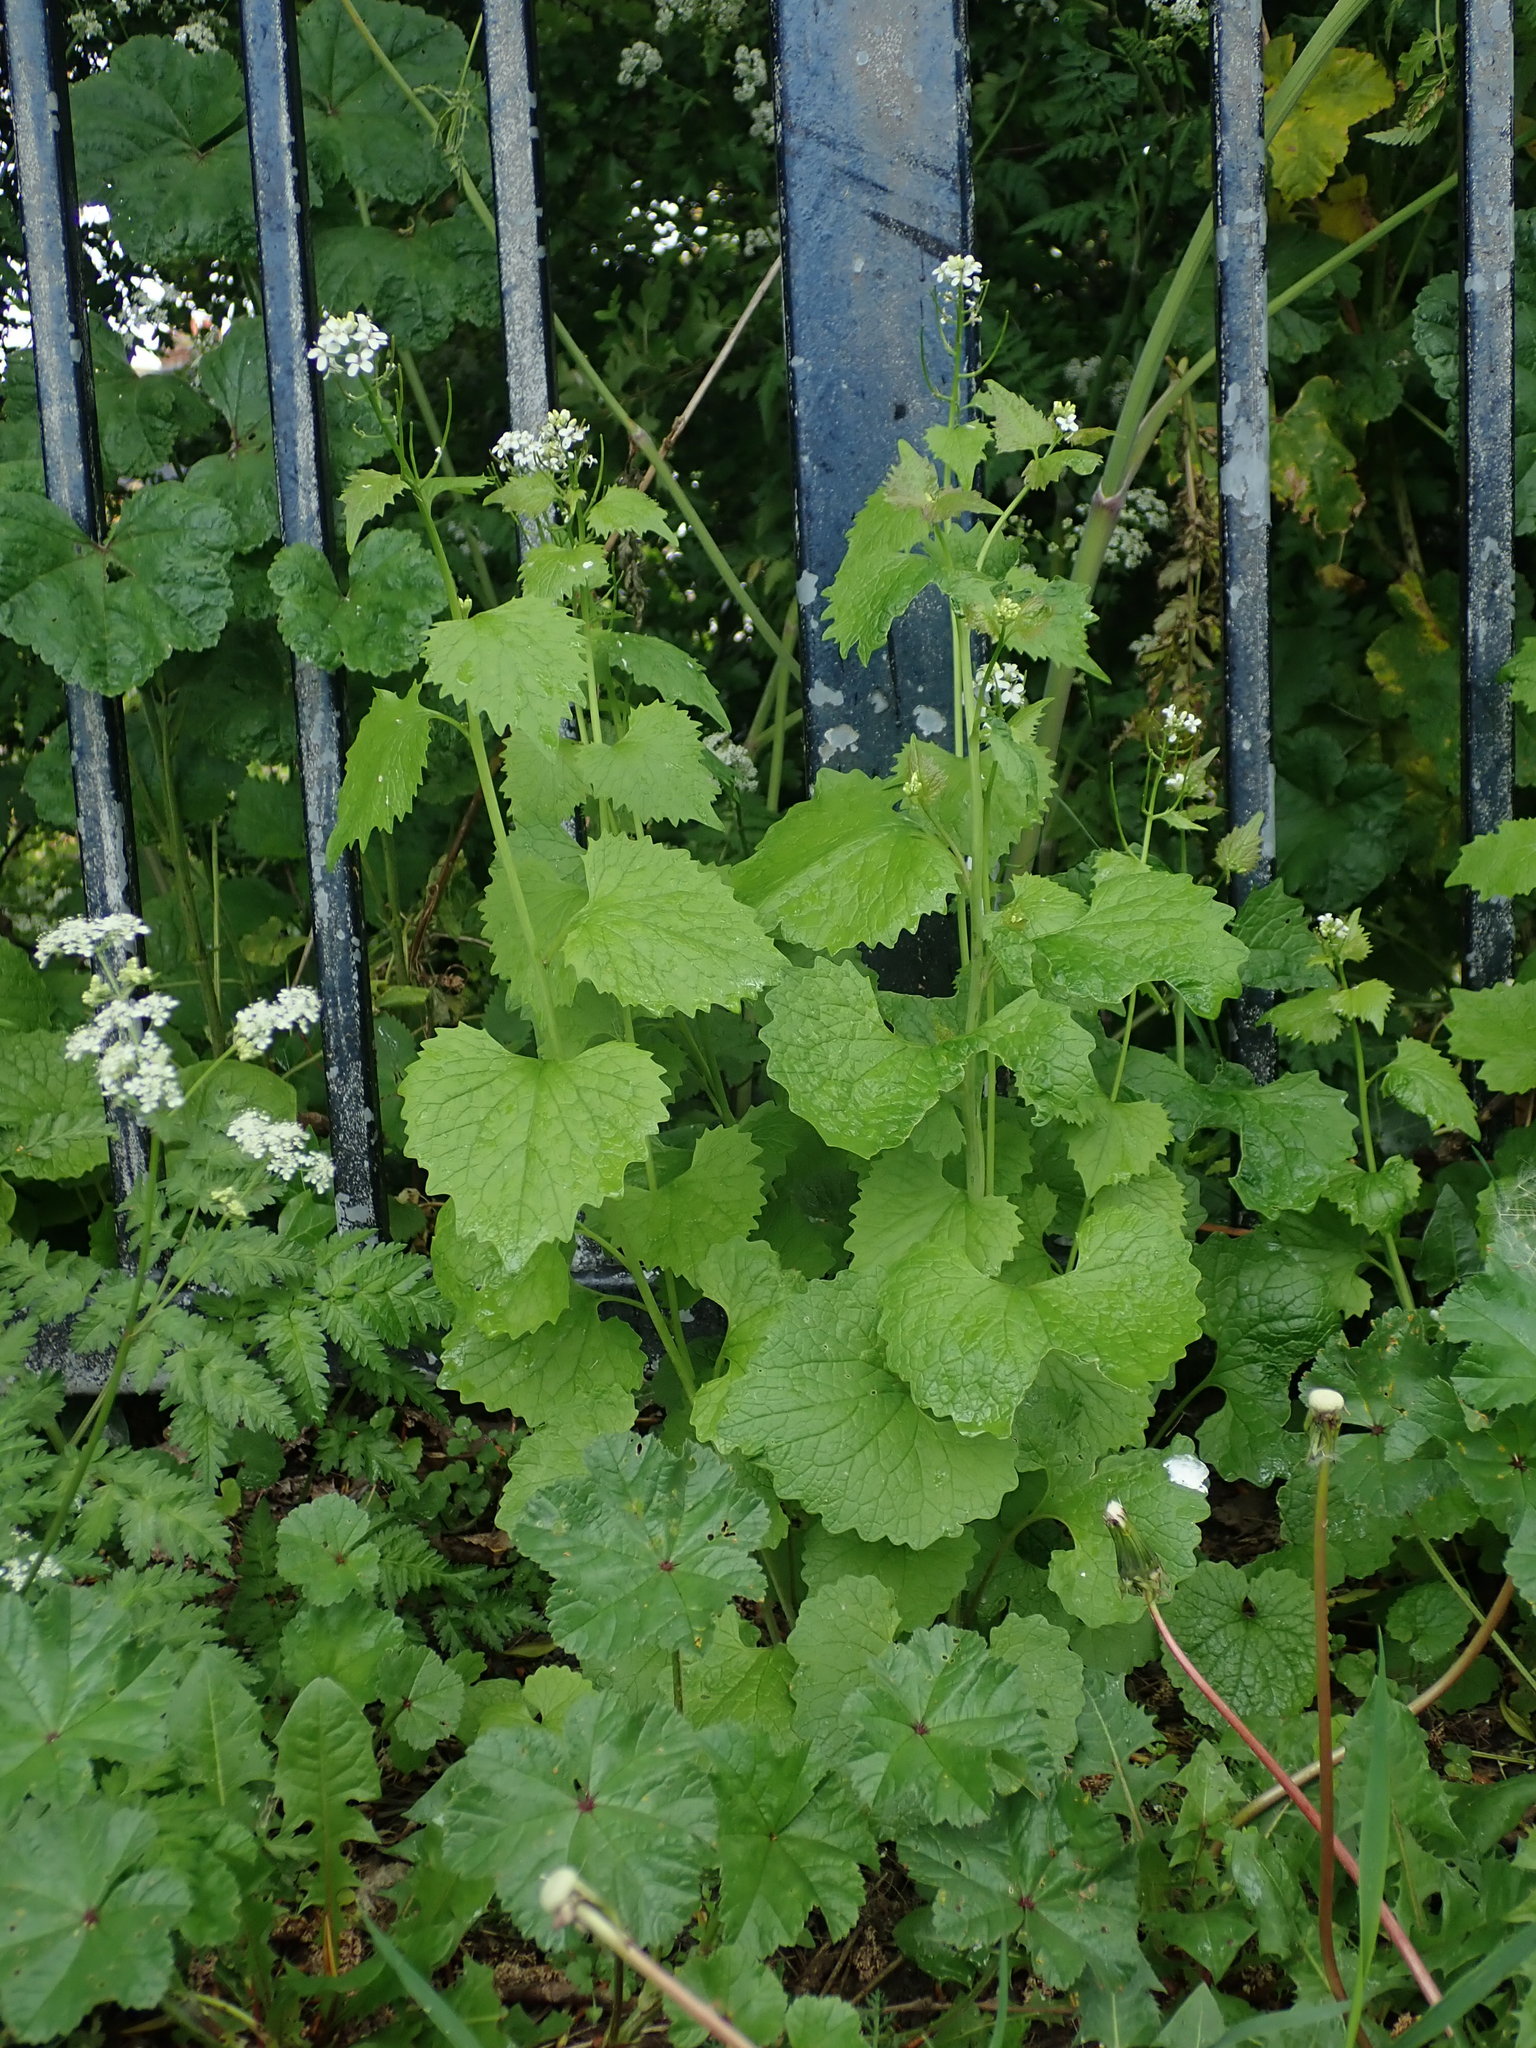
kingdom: Plantae
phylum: Tracheophyta
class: Magnoliopsida
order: Brassicales
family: Brassicaceae
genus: Alliaria
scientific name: Alliaria petiolata
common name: Garlic mustard
